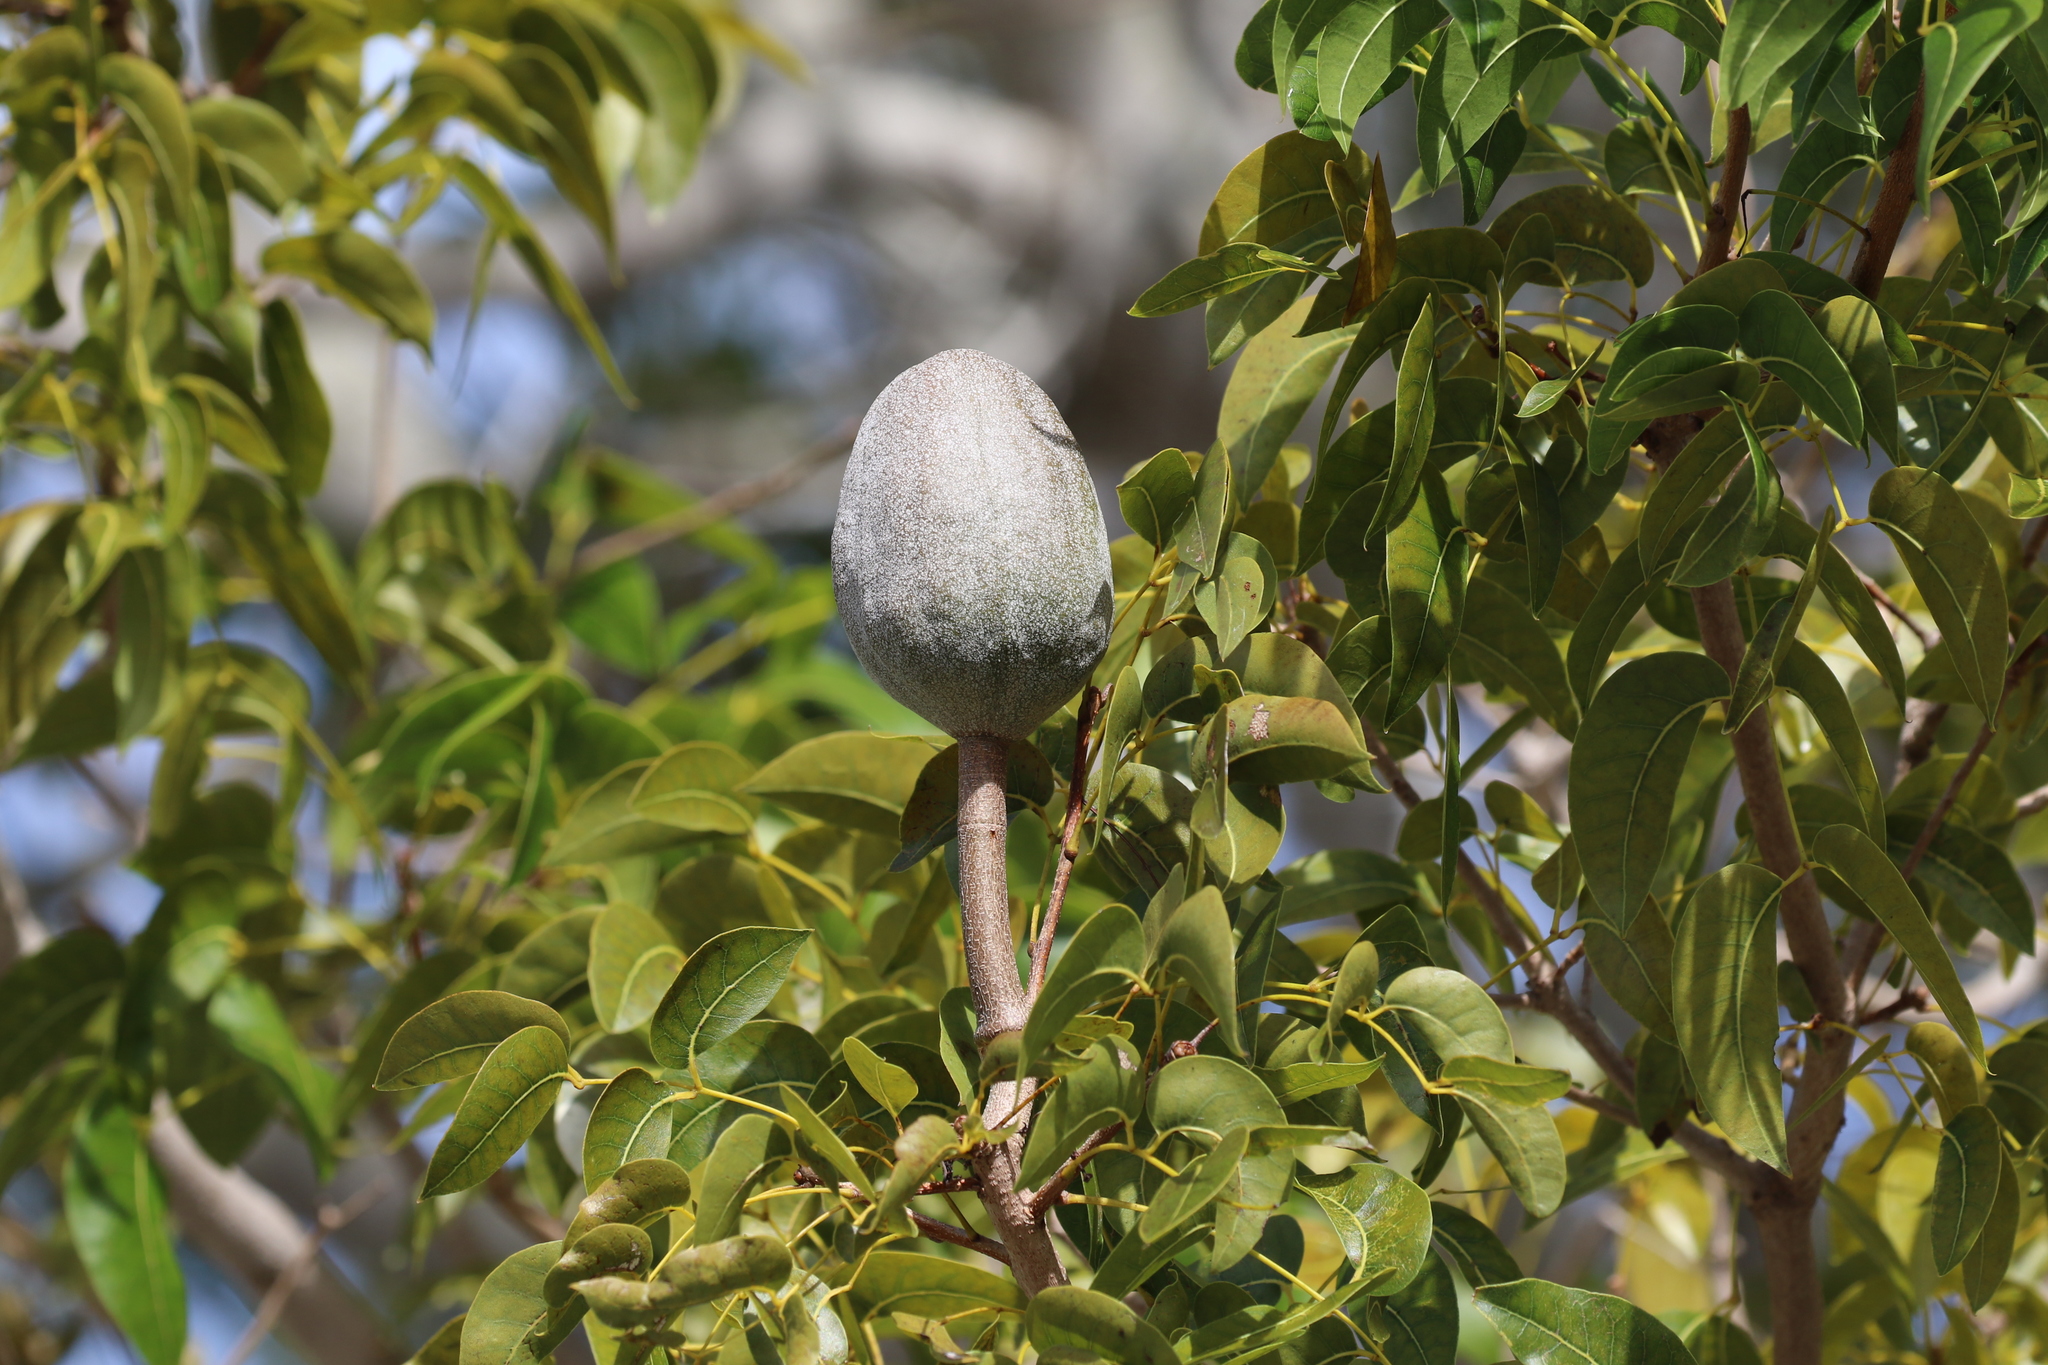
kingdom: Plantae
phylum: Tracheophyta
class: Magnoliopsida
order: Sapindales
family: Meliaceae
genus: Swietenia
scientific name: Swietenia mahagoni
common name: West indian mahogany
